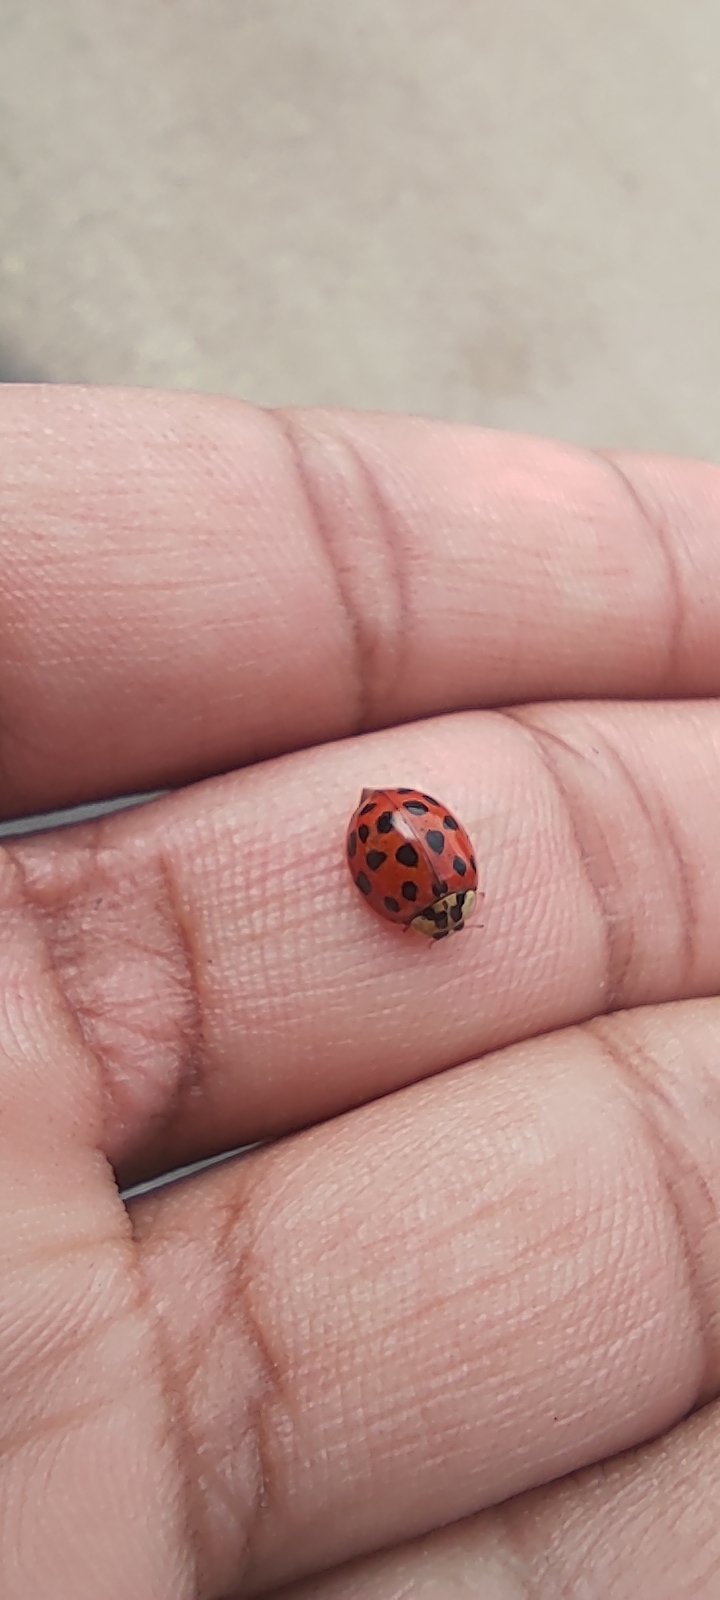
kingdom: Animalia
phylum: Arthropoda
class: Insecta
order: Coleoptera
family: Coccinellidae
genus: Harmonia
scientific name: Harmonia axyridis
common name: Harlequin ladybird
